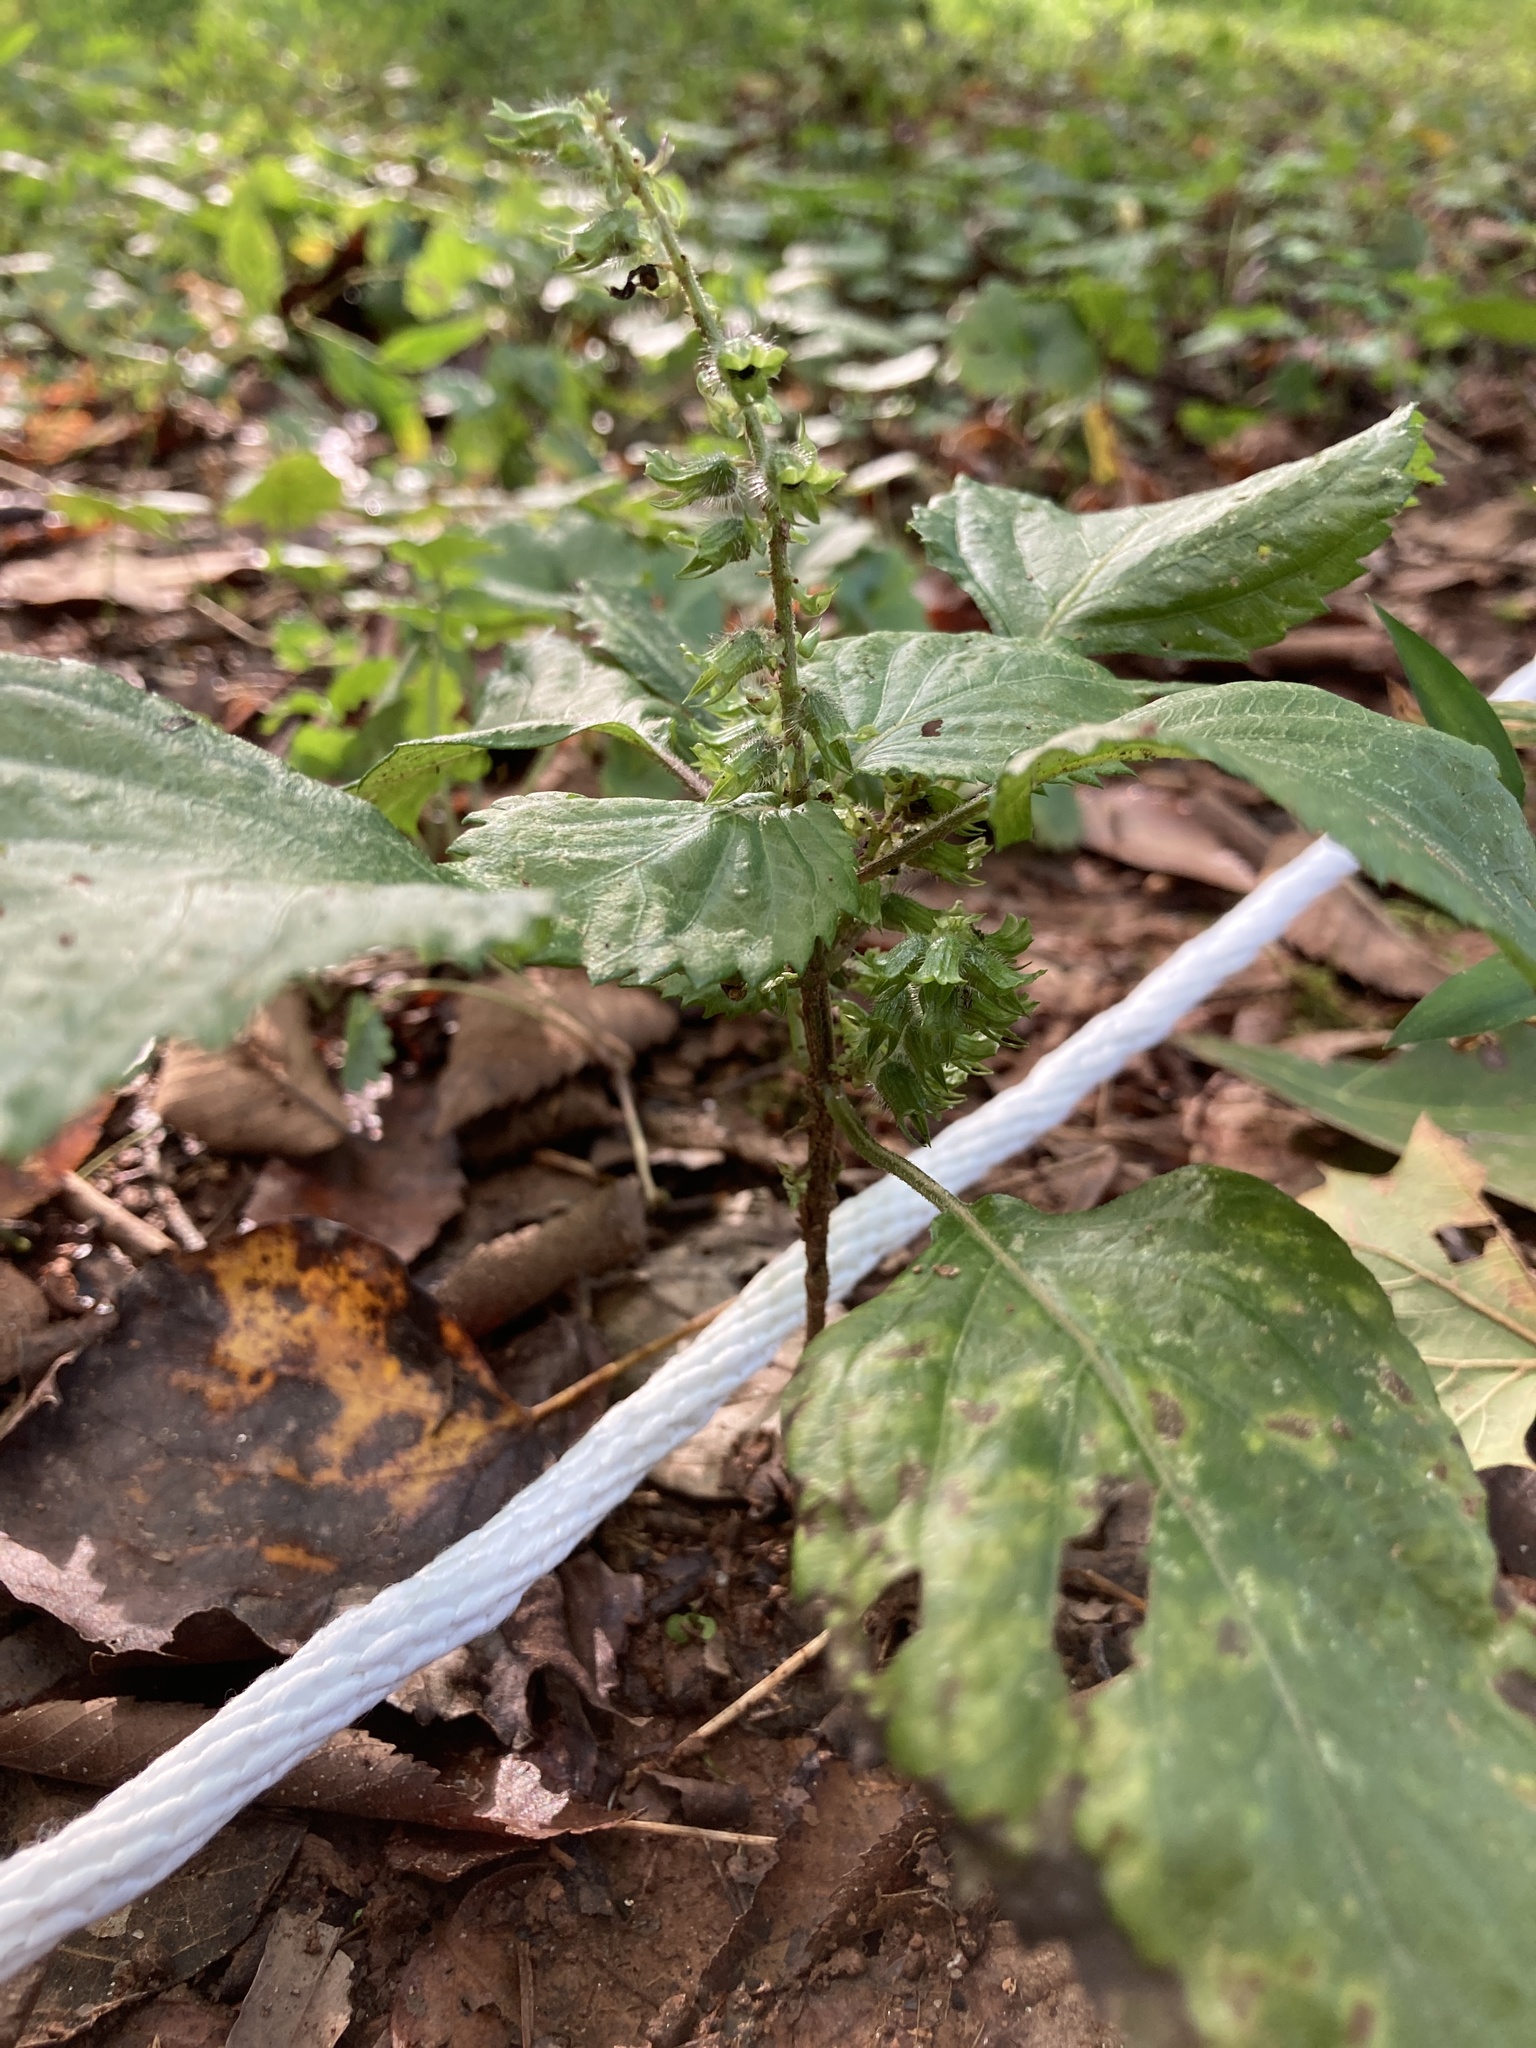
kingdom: Plantae
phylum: Tracheophyta
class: Magnoliopsida
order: Lamiales
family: Lamiaceae
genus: Perilla
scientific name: Perilla frutescens
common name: Perilla
